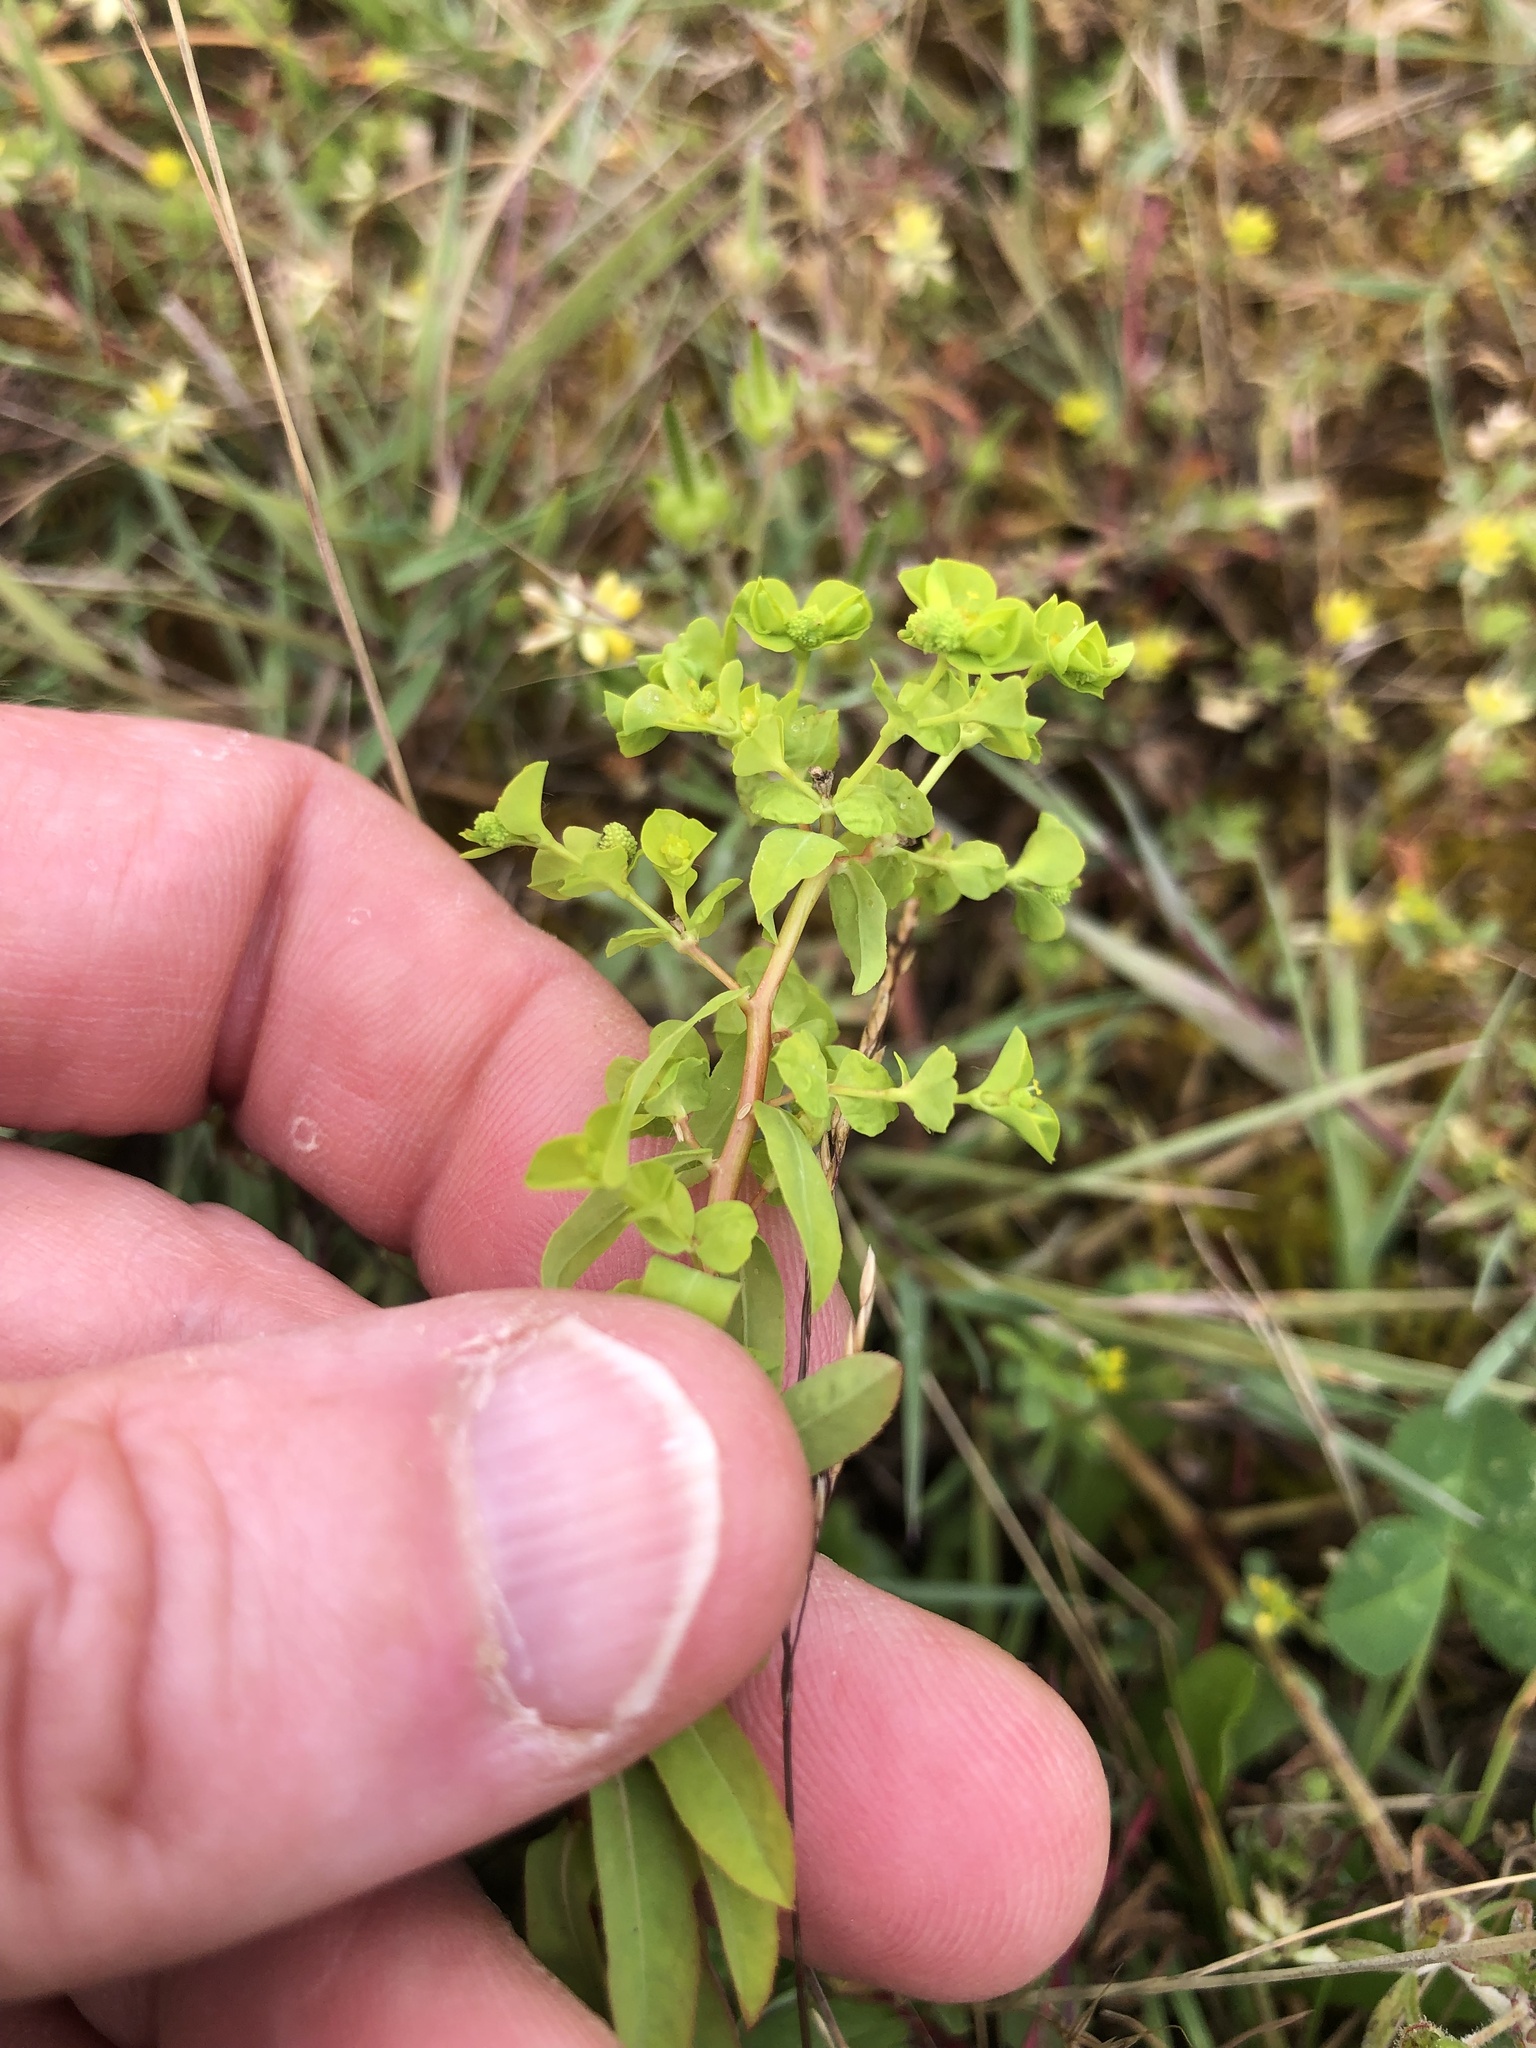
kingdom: Plantae
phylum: Tracheophyta
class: Magnoliopsida
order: Malpighiales
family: Euphorbiaceae
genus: Euphorbia
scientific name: Euphorbia peplus
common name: Petty spurge
